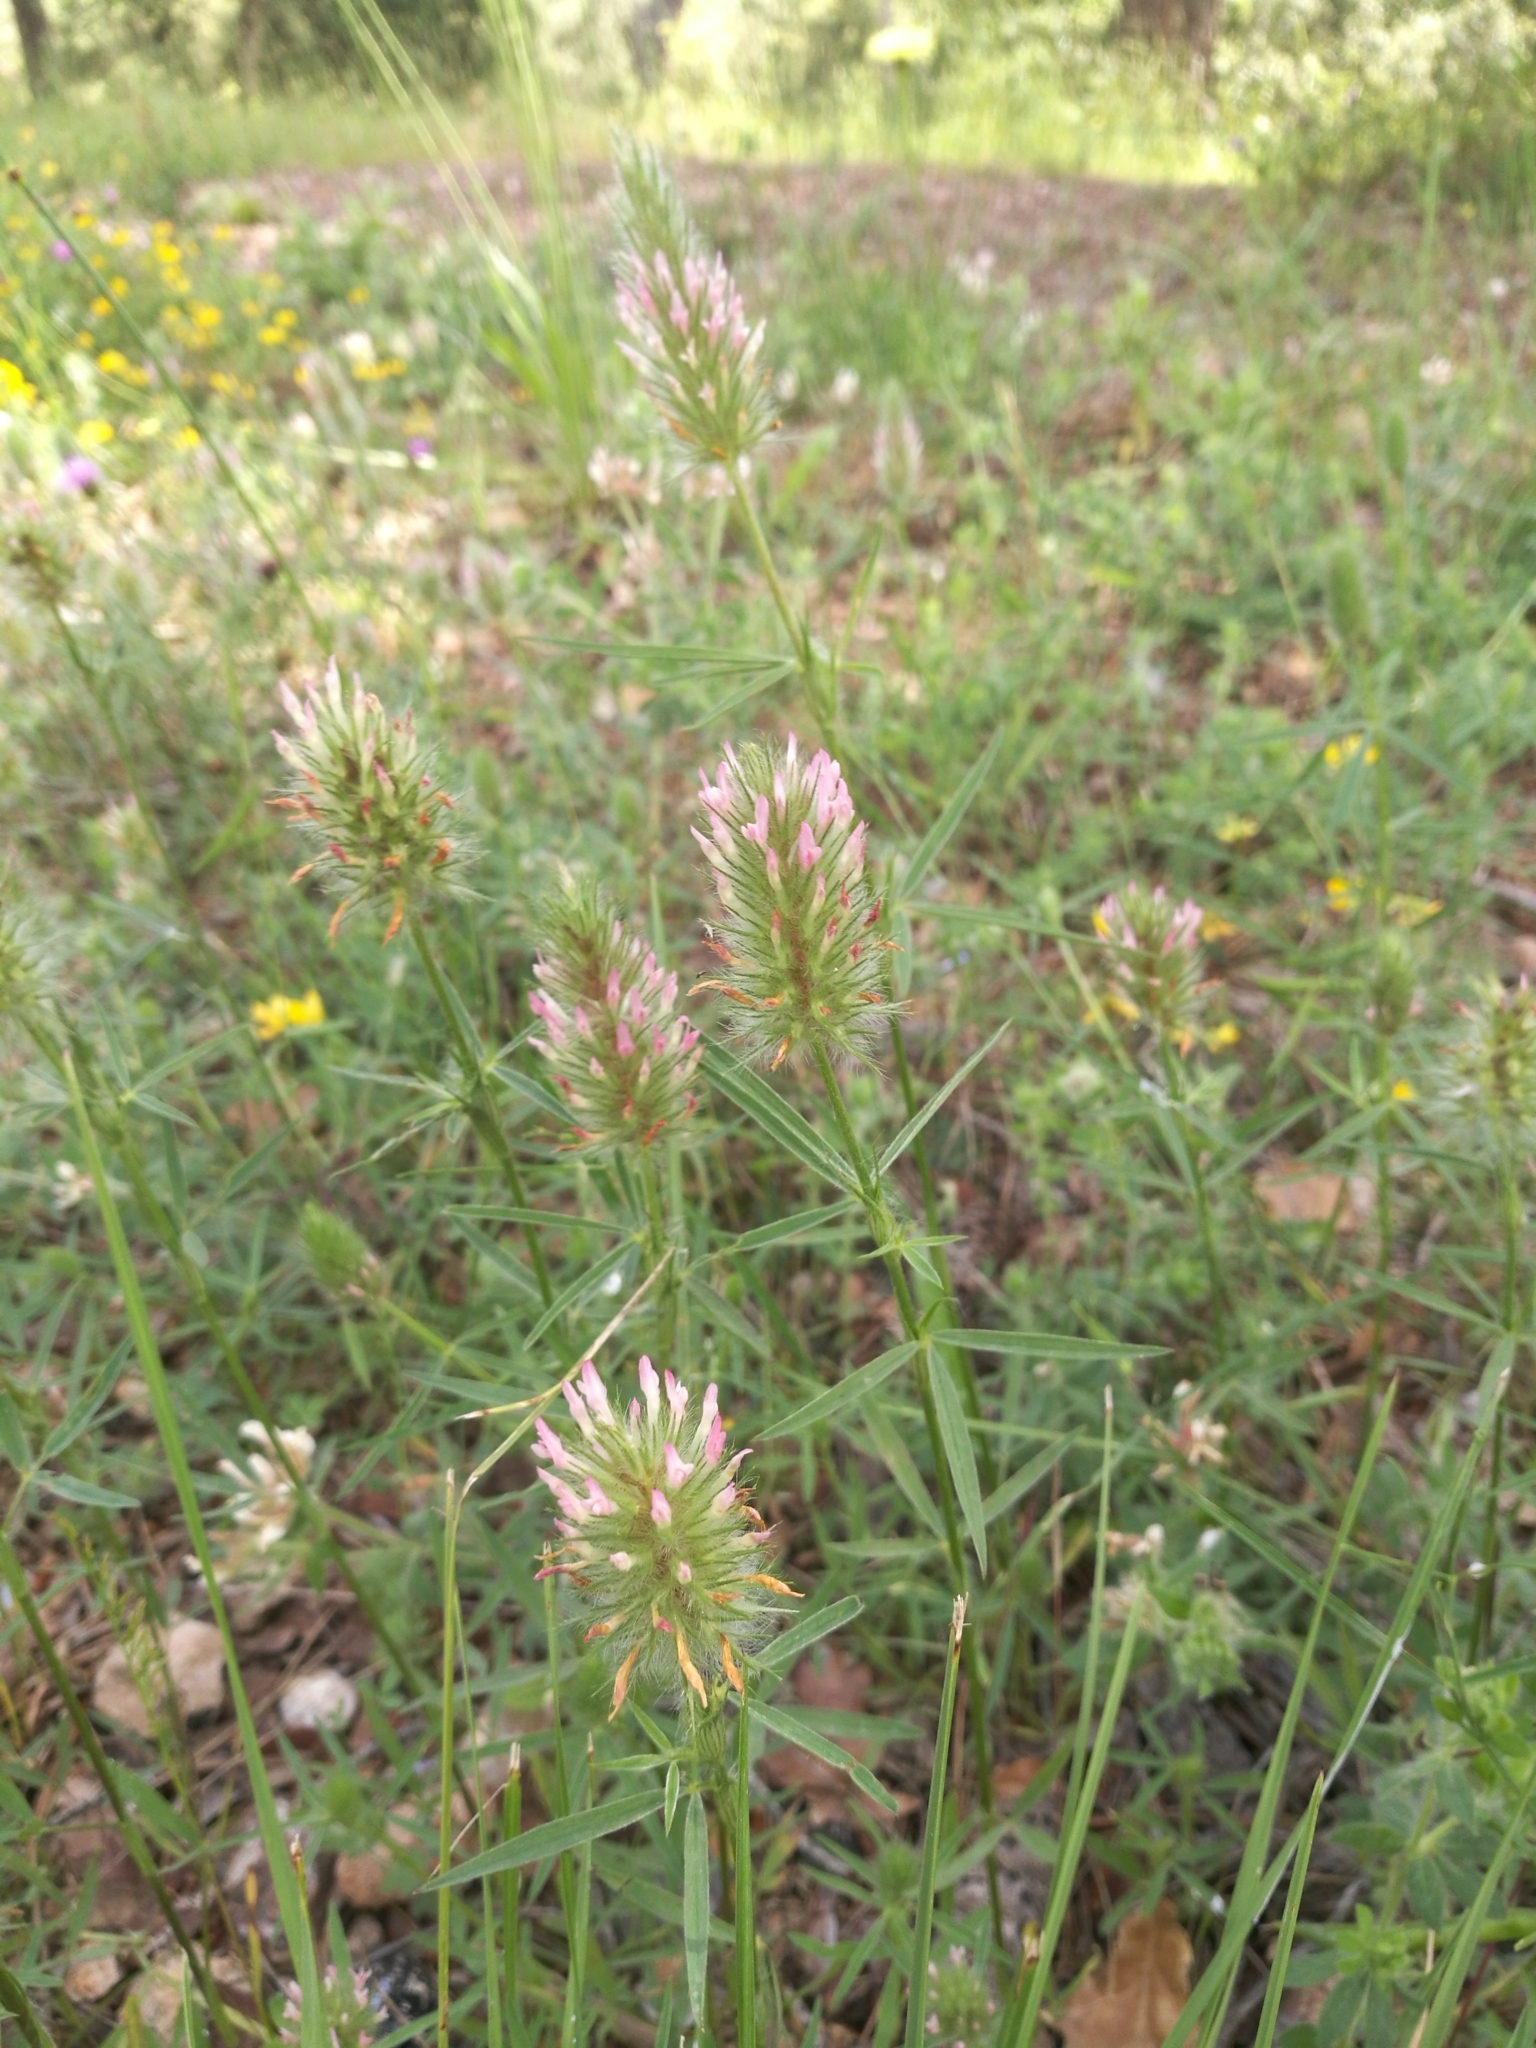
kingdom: Plantae
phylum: Tracheophyta
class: Magnoliopsida
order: Fabales
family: Fabaceae
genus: Trifolium
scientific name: Trifolium angustifolium
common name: Narrow clover
